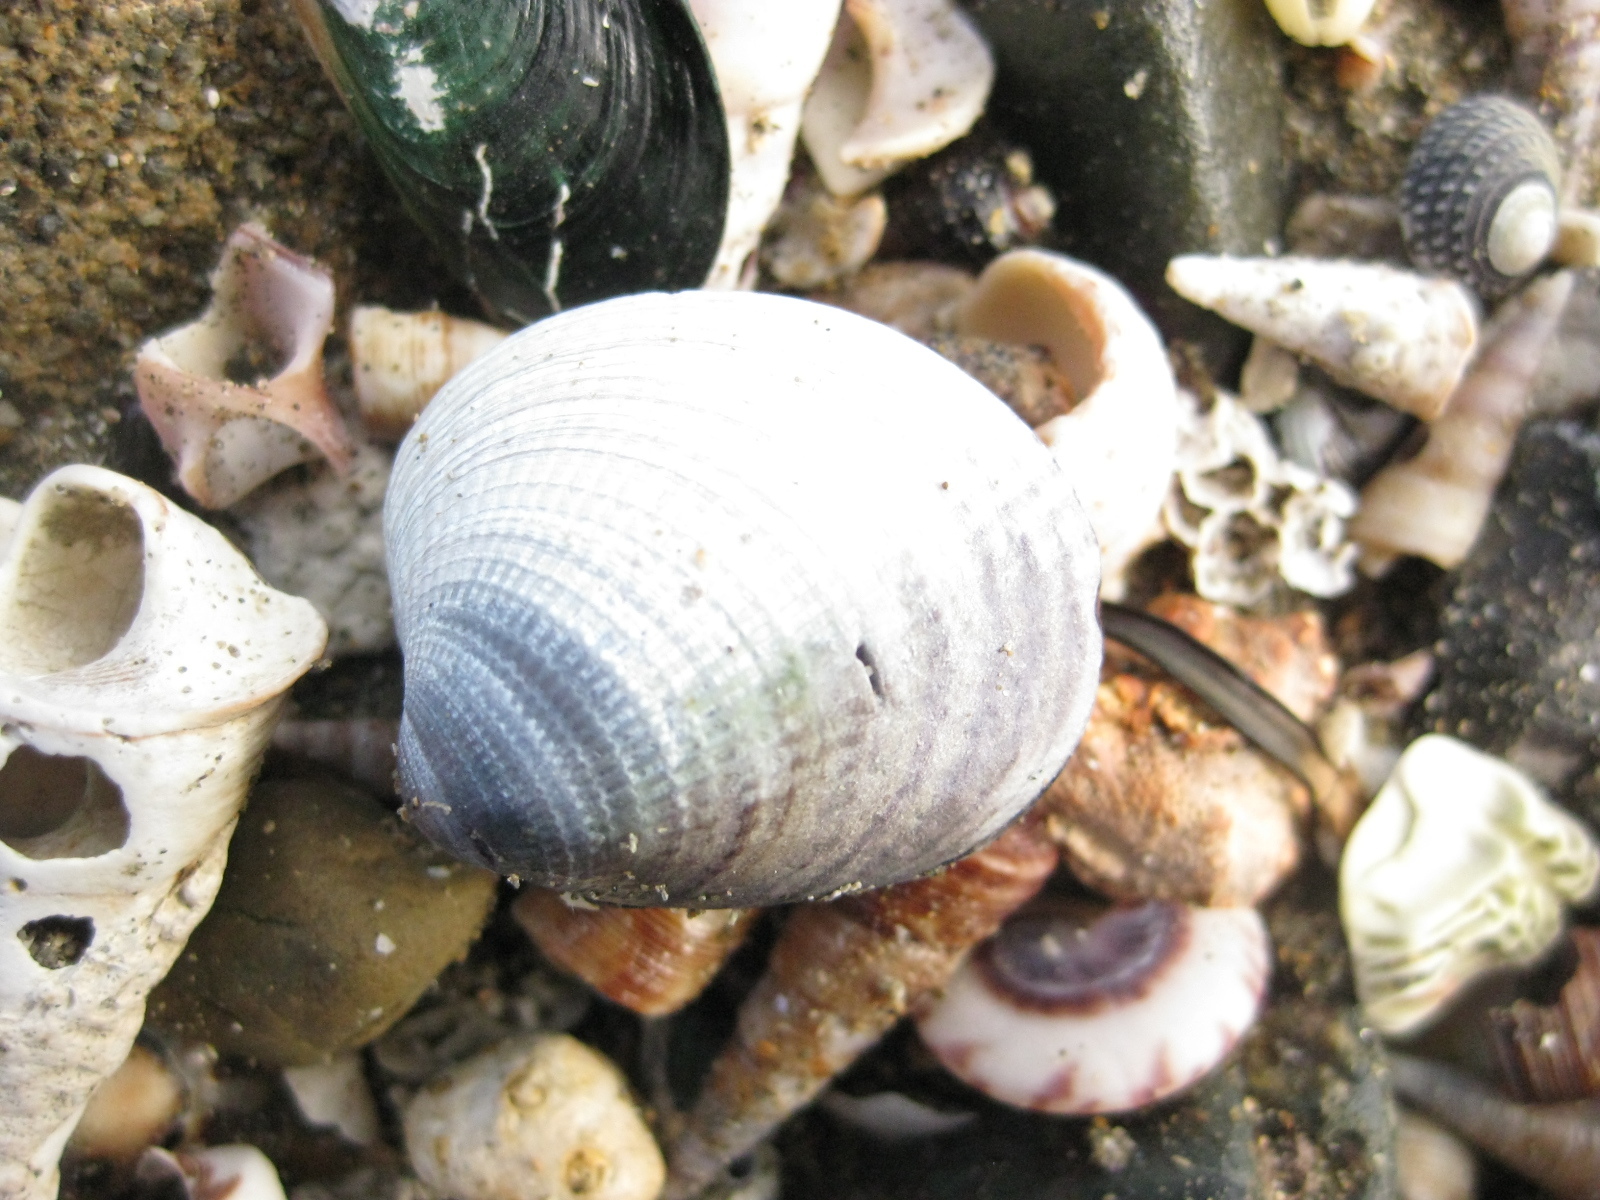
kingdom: Animalia
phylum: Mollusca
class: Bivalvia
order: Venerida
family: Veneridae
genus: Austrovenus
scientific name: Austrovenus stutchburyi
